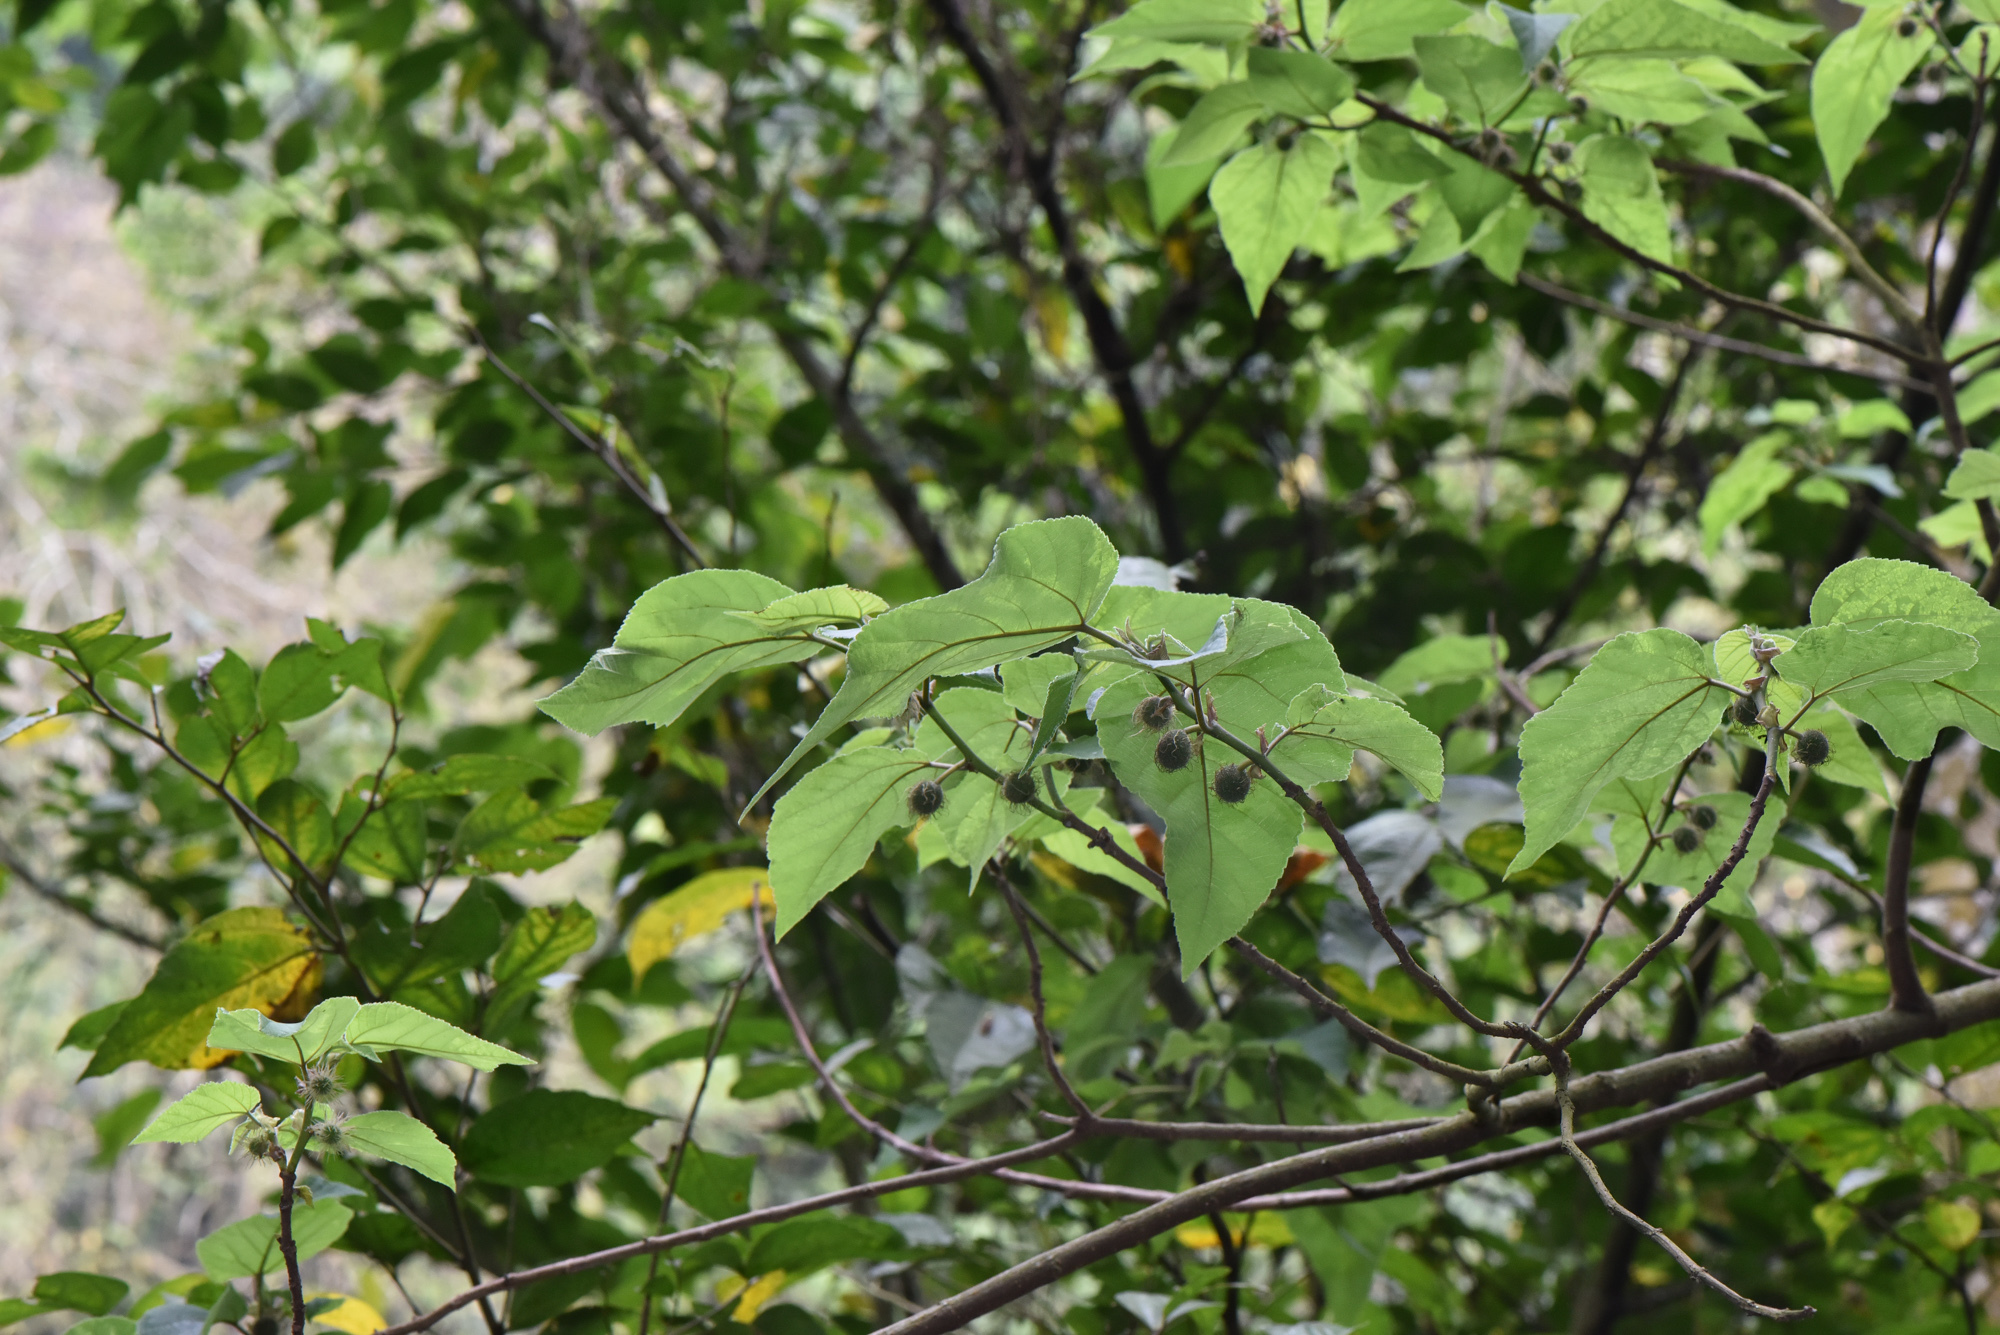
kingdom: Plantae
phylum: Tracheophyta
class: Magnoliopsida
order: Rosales
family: Moraceae
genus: Broussonetia
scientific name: Broussonetia papyrifera
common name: Paper mulberry
